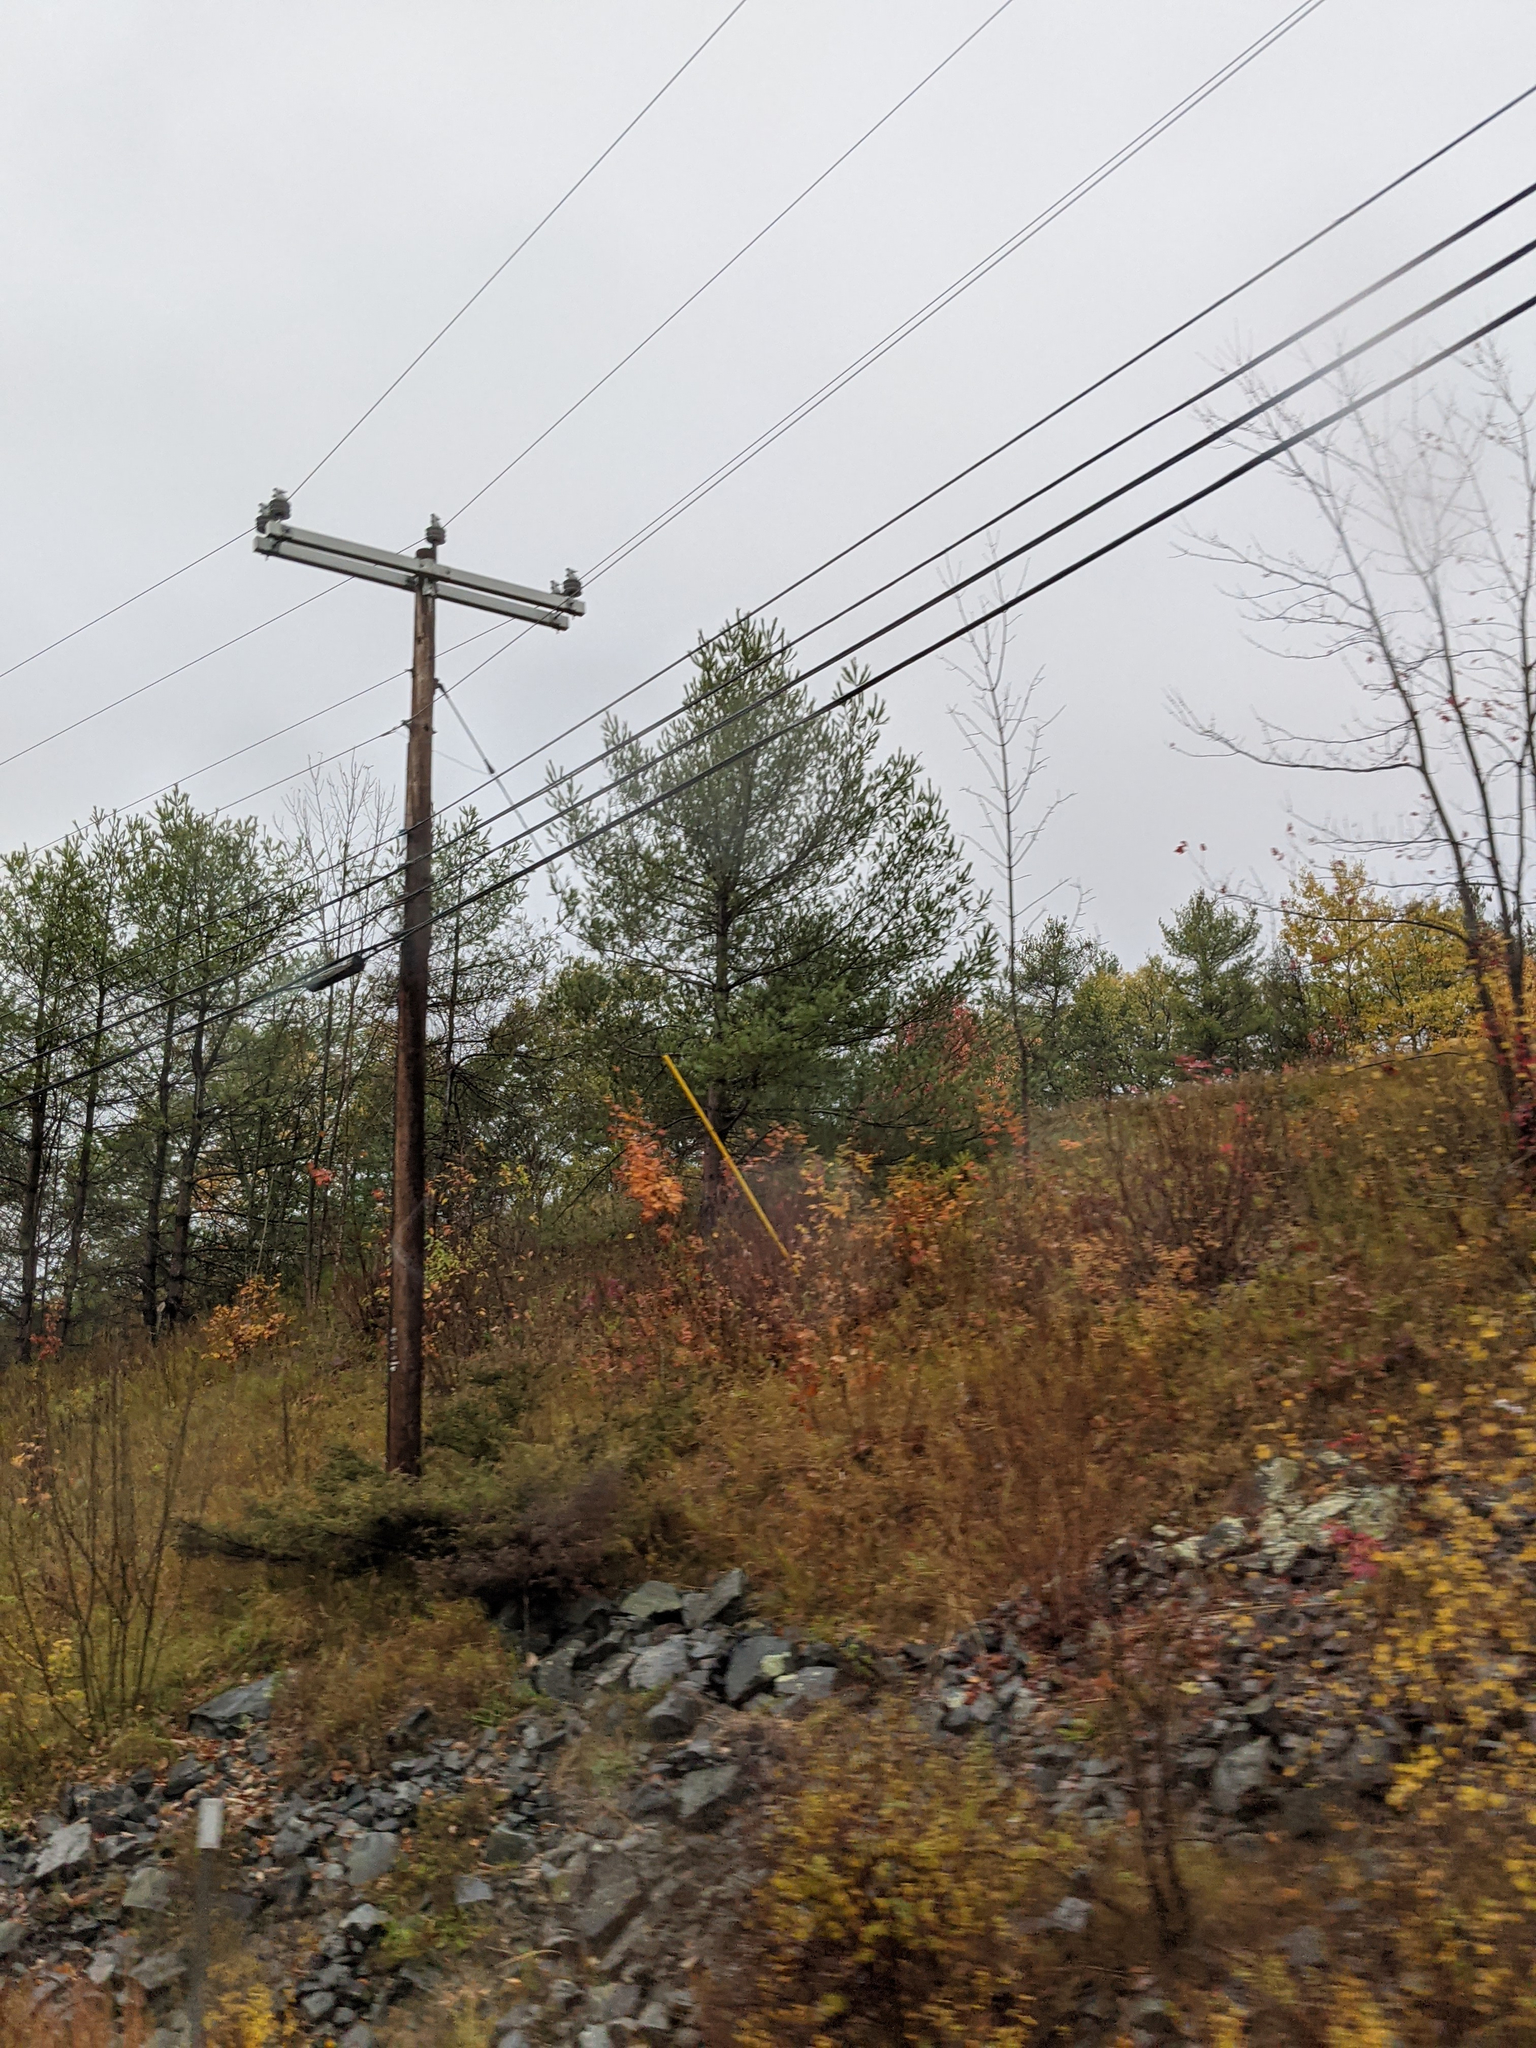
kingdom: Plantae
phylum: Tracheophyta
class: Pinopsida
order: Pinales
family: Pinaceae
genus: Pinus
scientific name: Pinus strobus
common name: Weymouth pine
